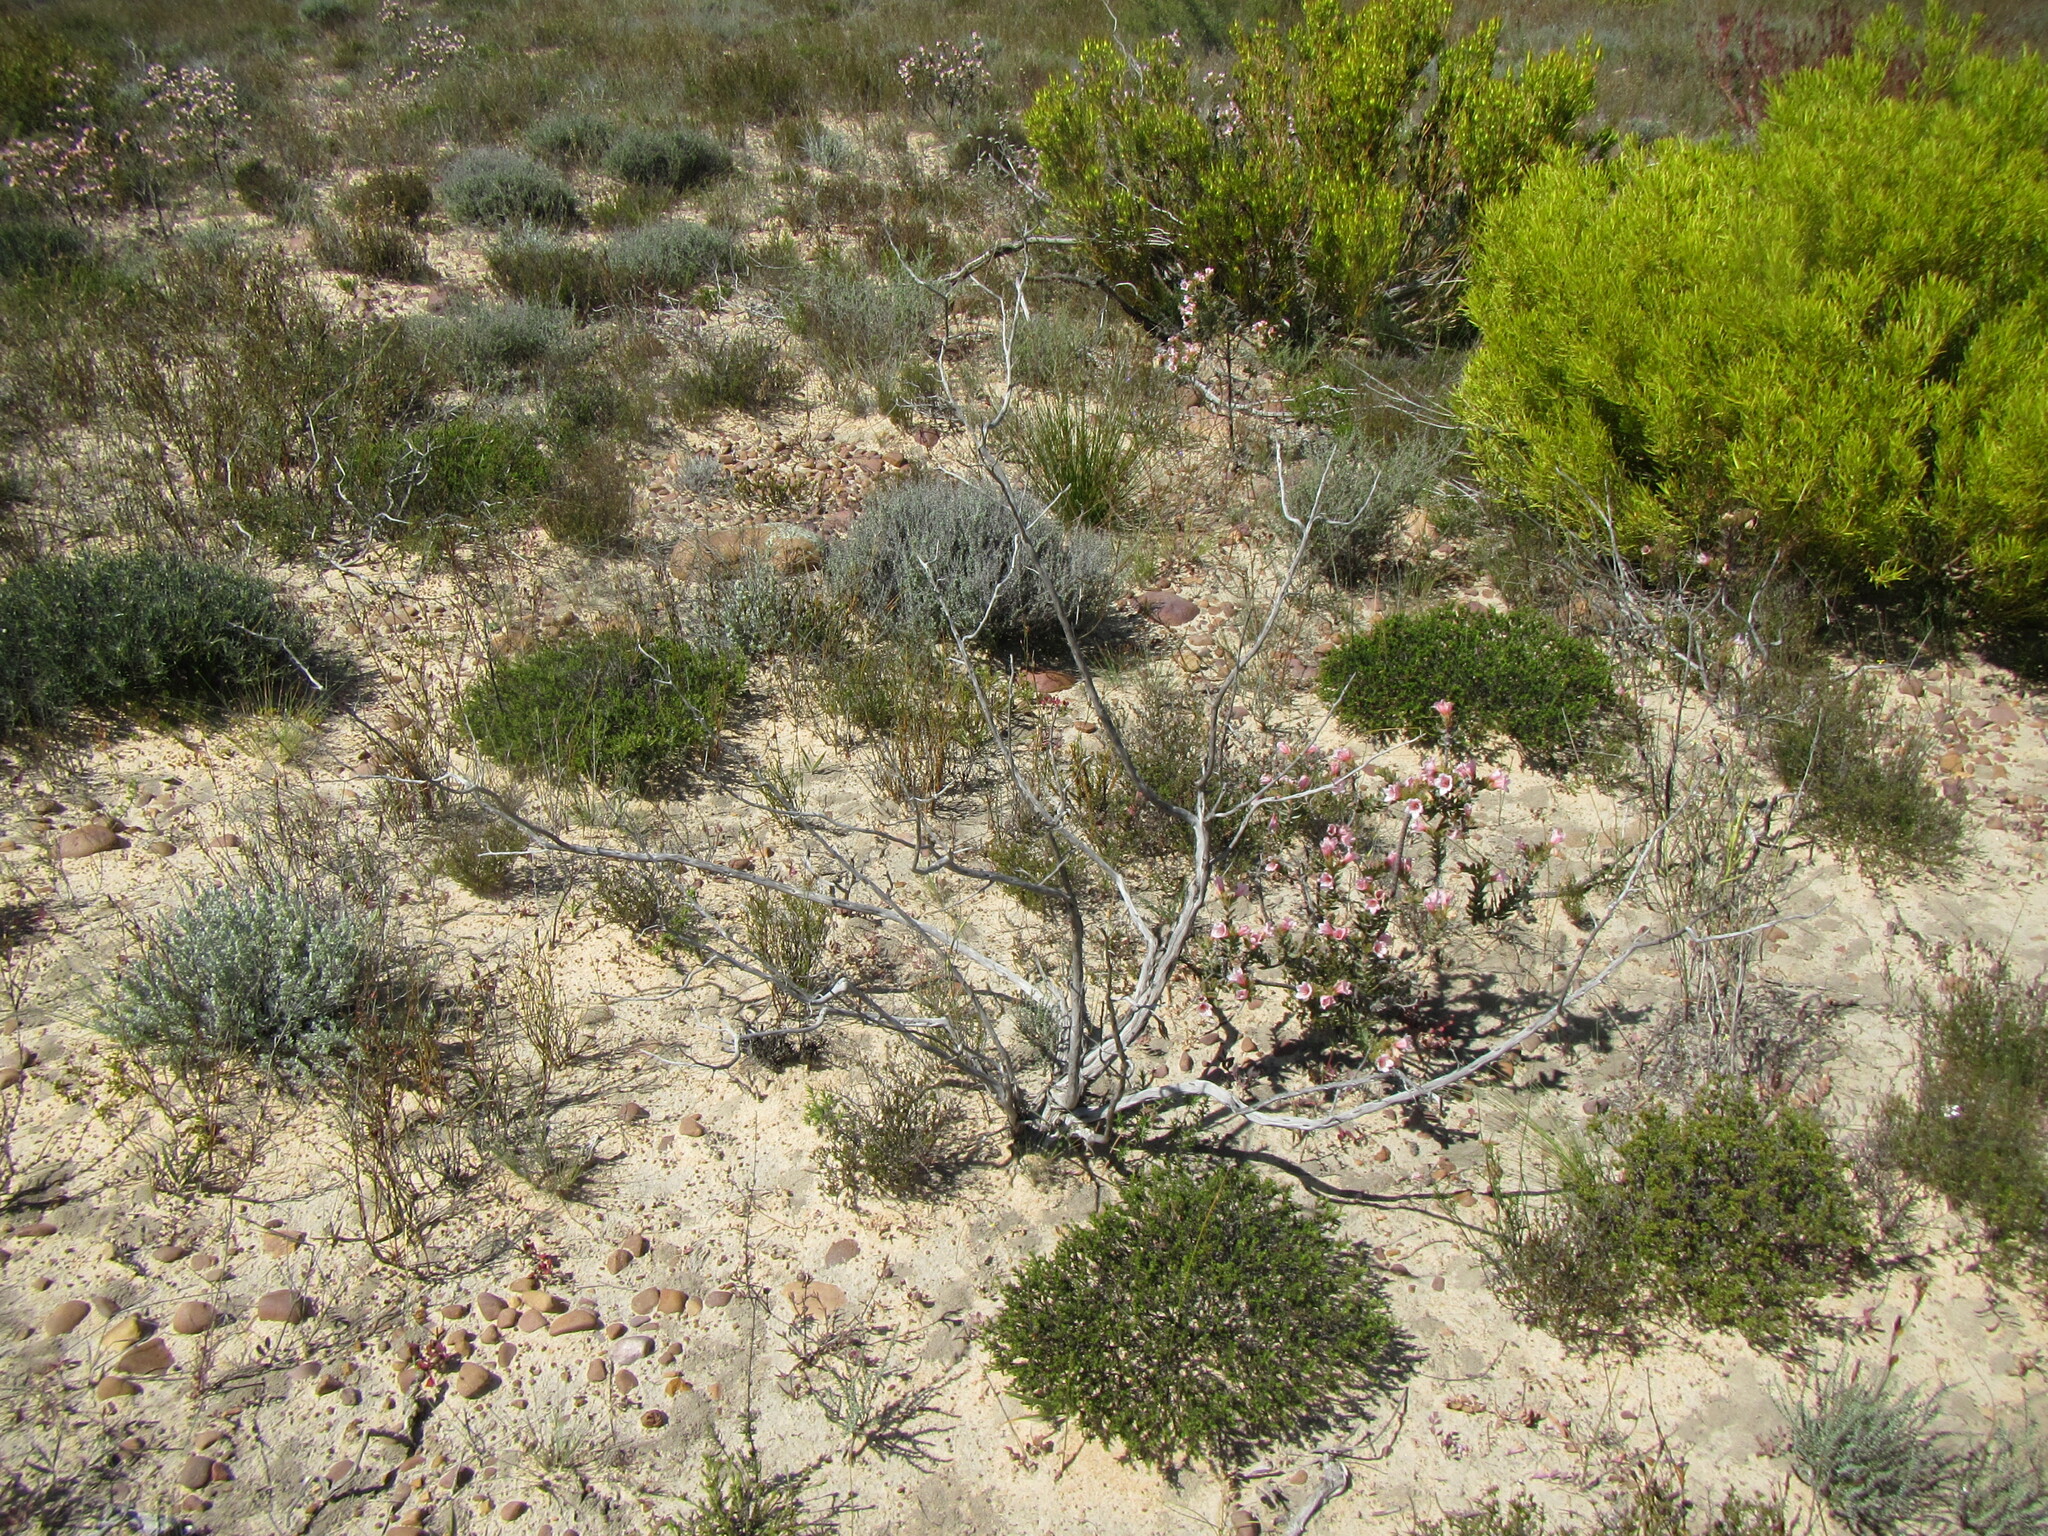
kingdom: Plantae
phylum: Tracheophyta
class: Magnoliopsida
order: Fabales
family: Fabaceae
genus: Aspalathus
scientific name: Aspalathus arida
